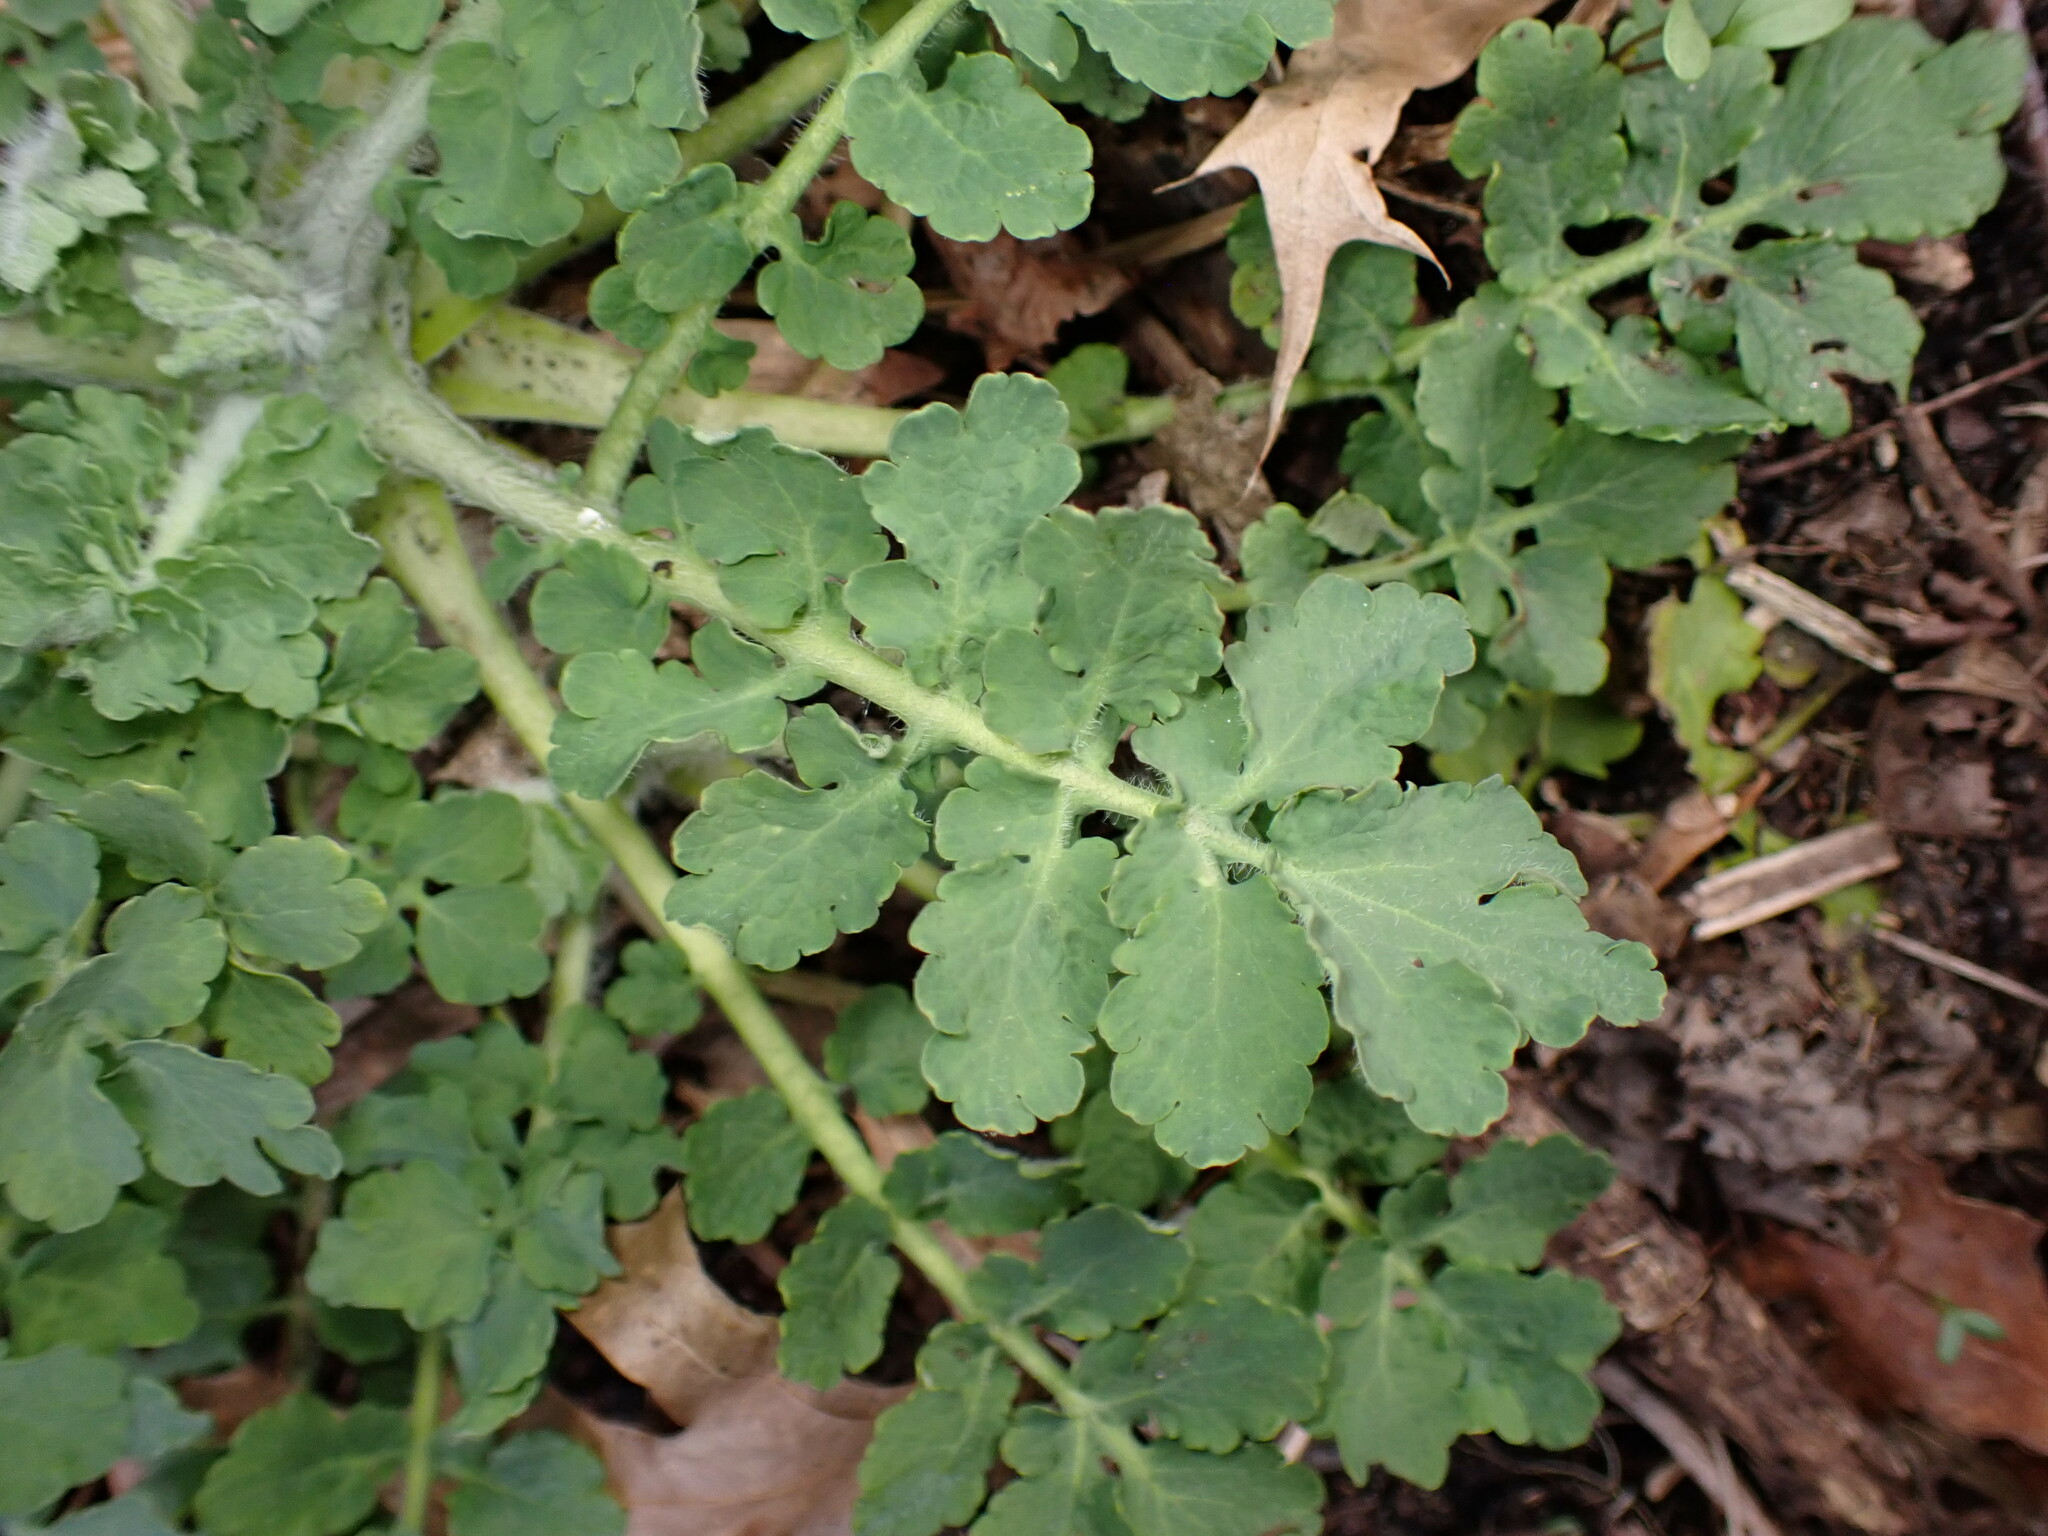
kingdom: Plantae
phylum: Tracheophyta
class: Magnoliopsida
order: Ranunculales
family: Papaveraceae
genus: Chelidonium
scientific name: Chelidonium majus
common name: Greater celandine
